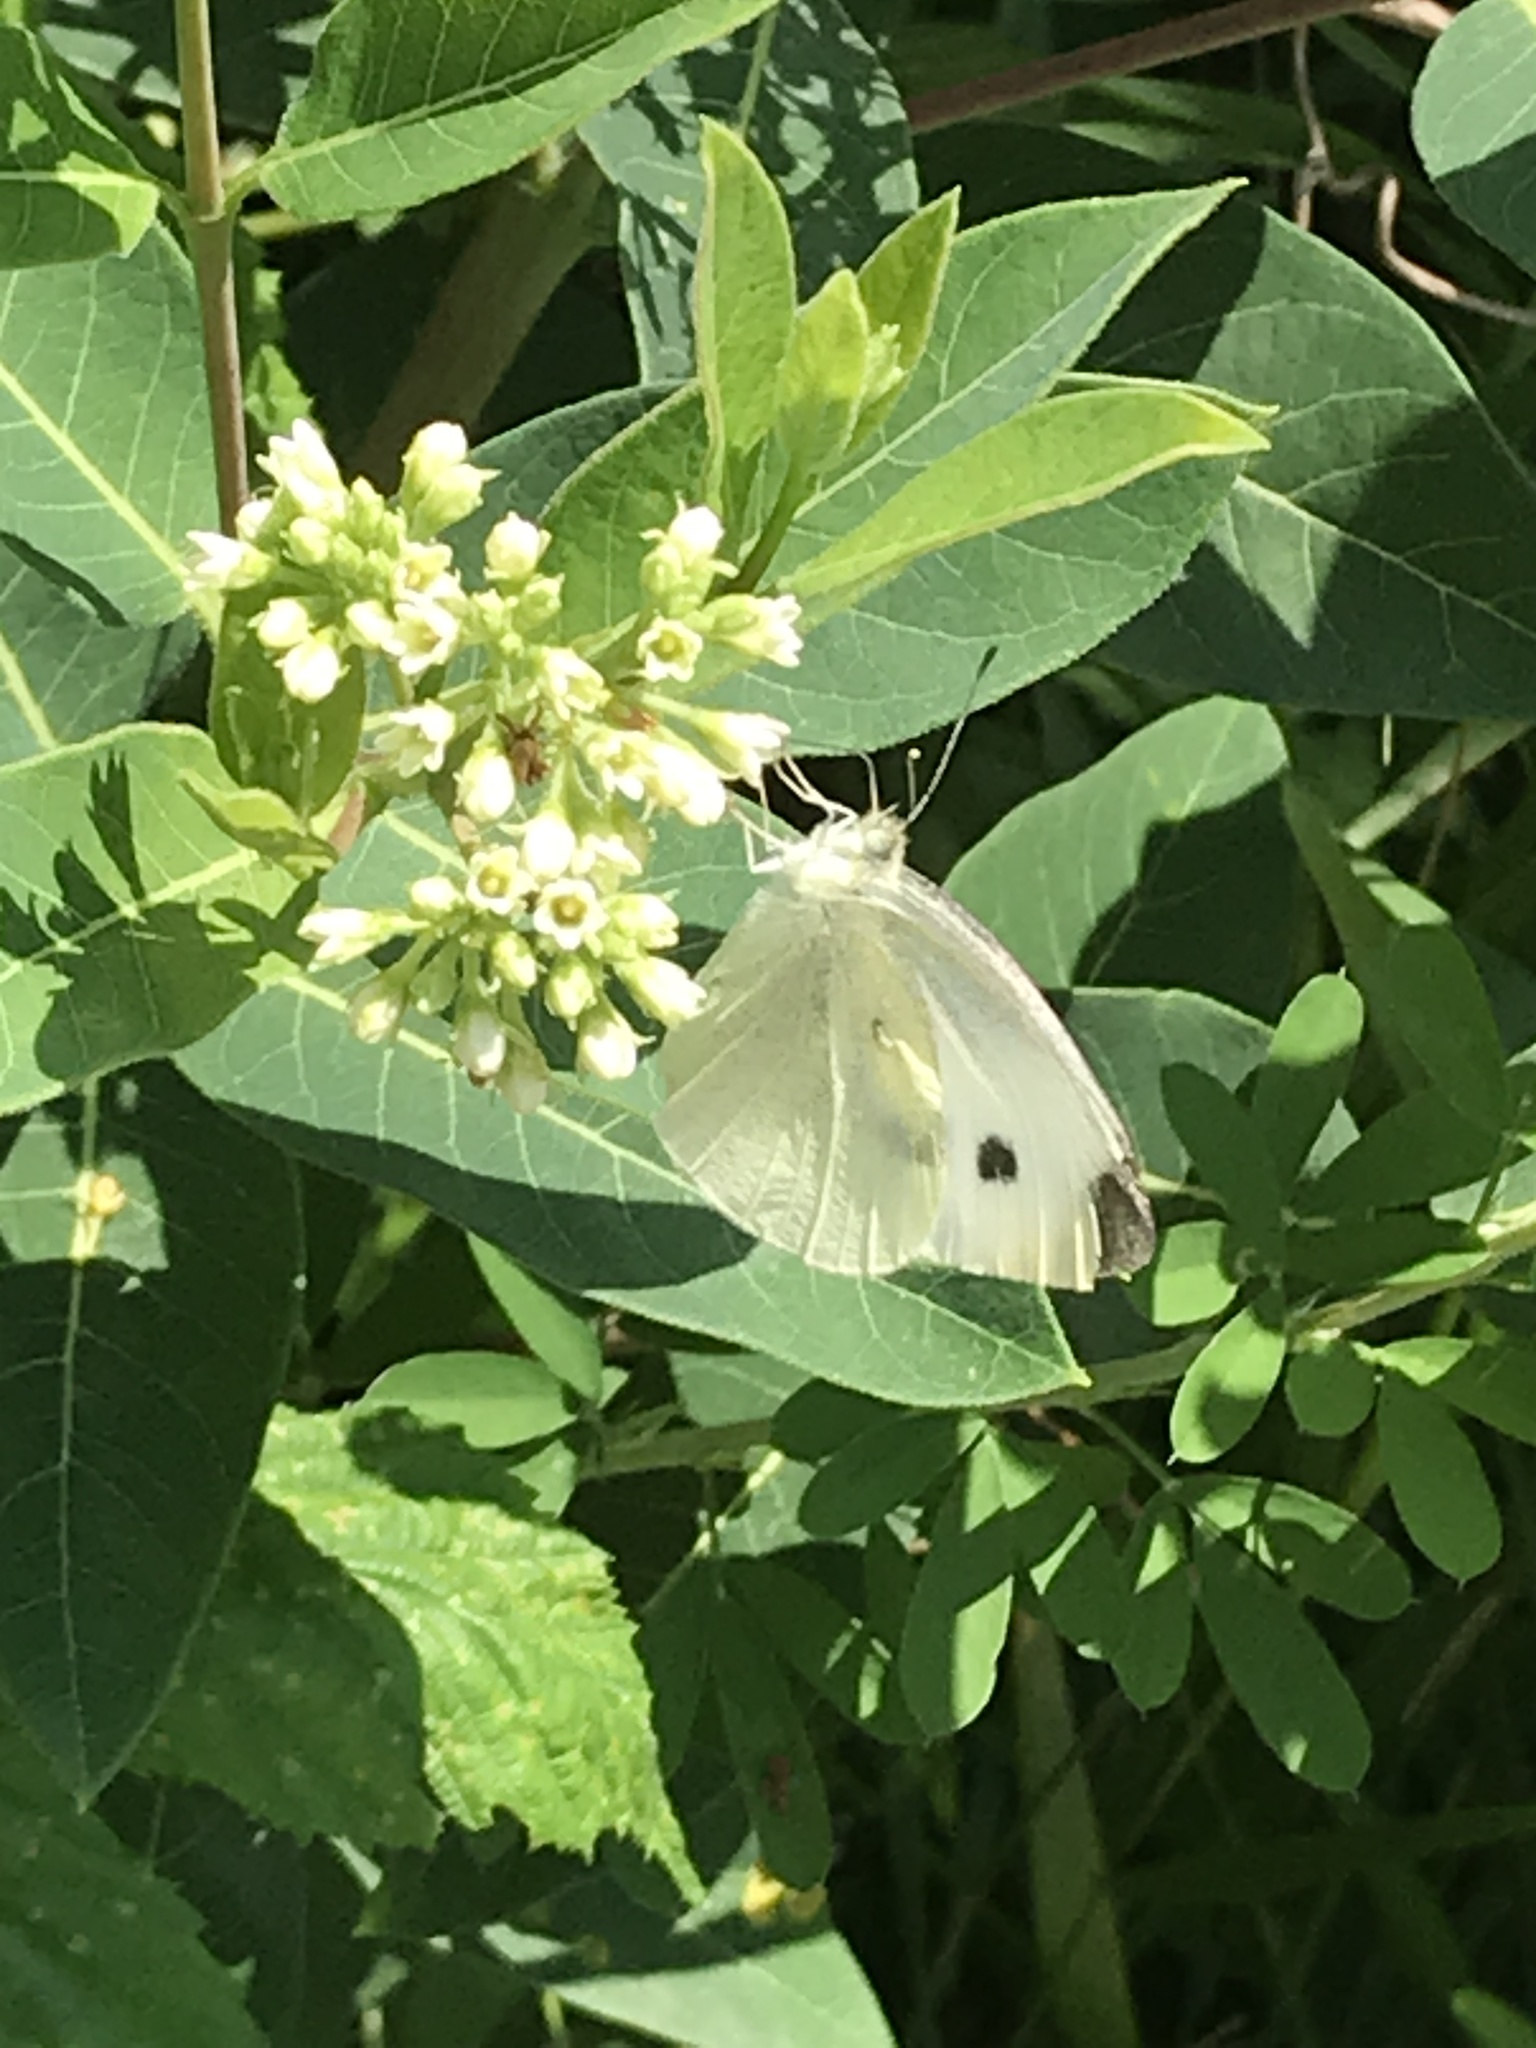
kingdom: Animalia
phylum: Arthropoda
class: Insecta
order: Lepidoptera
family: Pieridae
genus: Pieris
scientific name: Pieris rapae
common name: Small white
